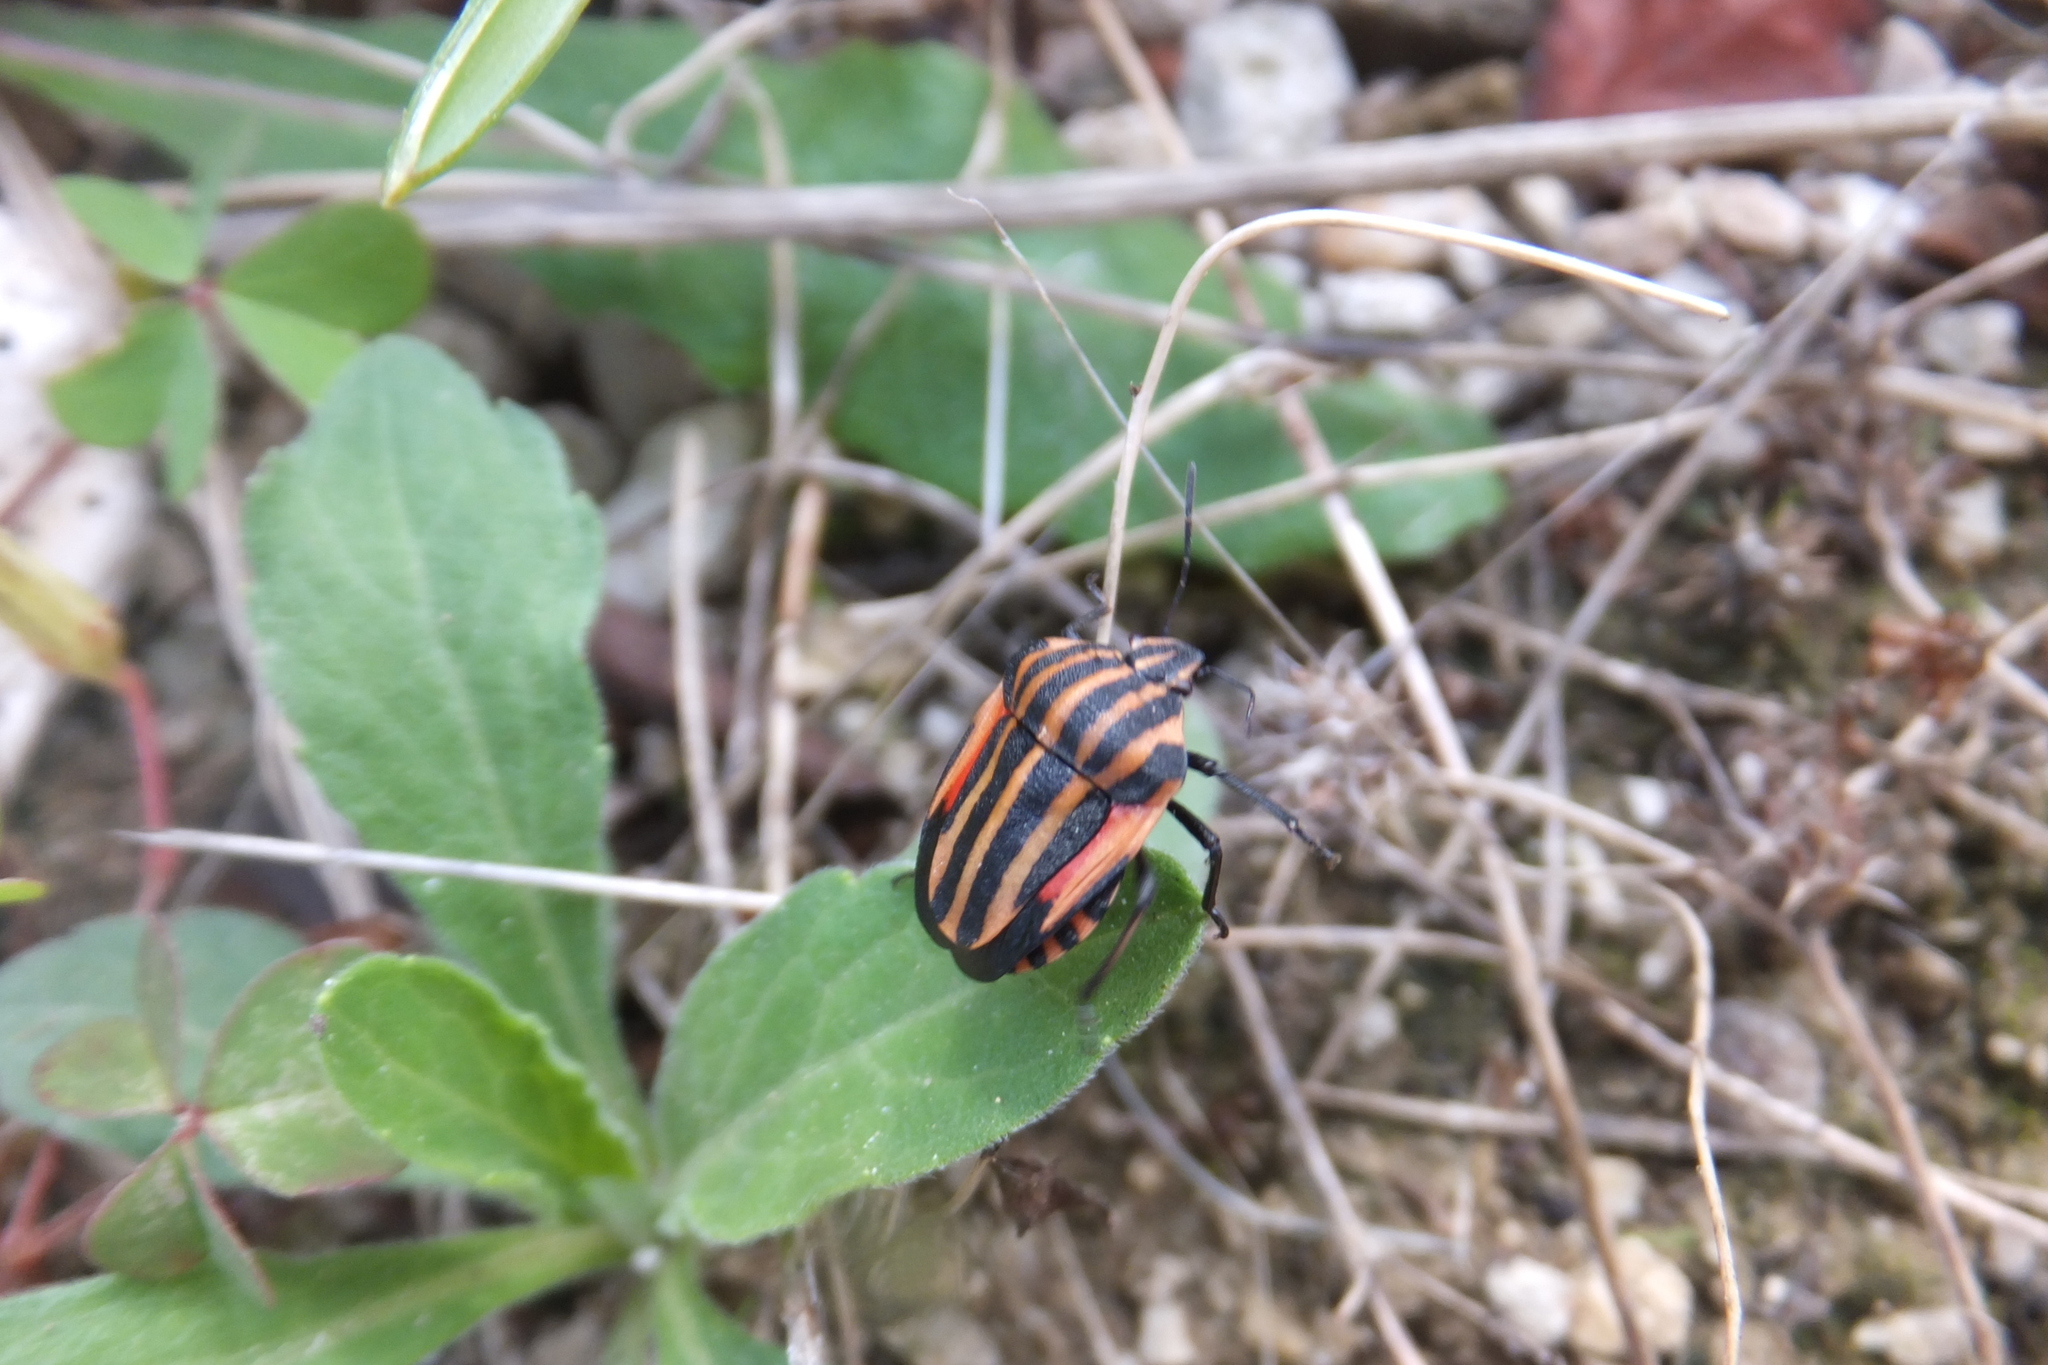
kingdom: Animalia
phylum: Arthropoda
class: Insecta
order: Hemiptera
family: Pentatomidae
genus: Graphosoma
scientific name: Graphosoma italicum
